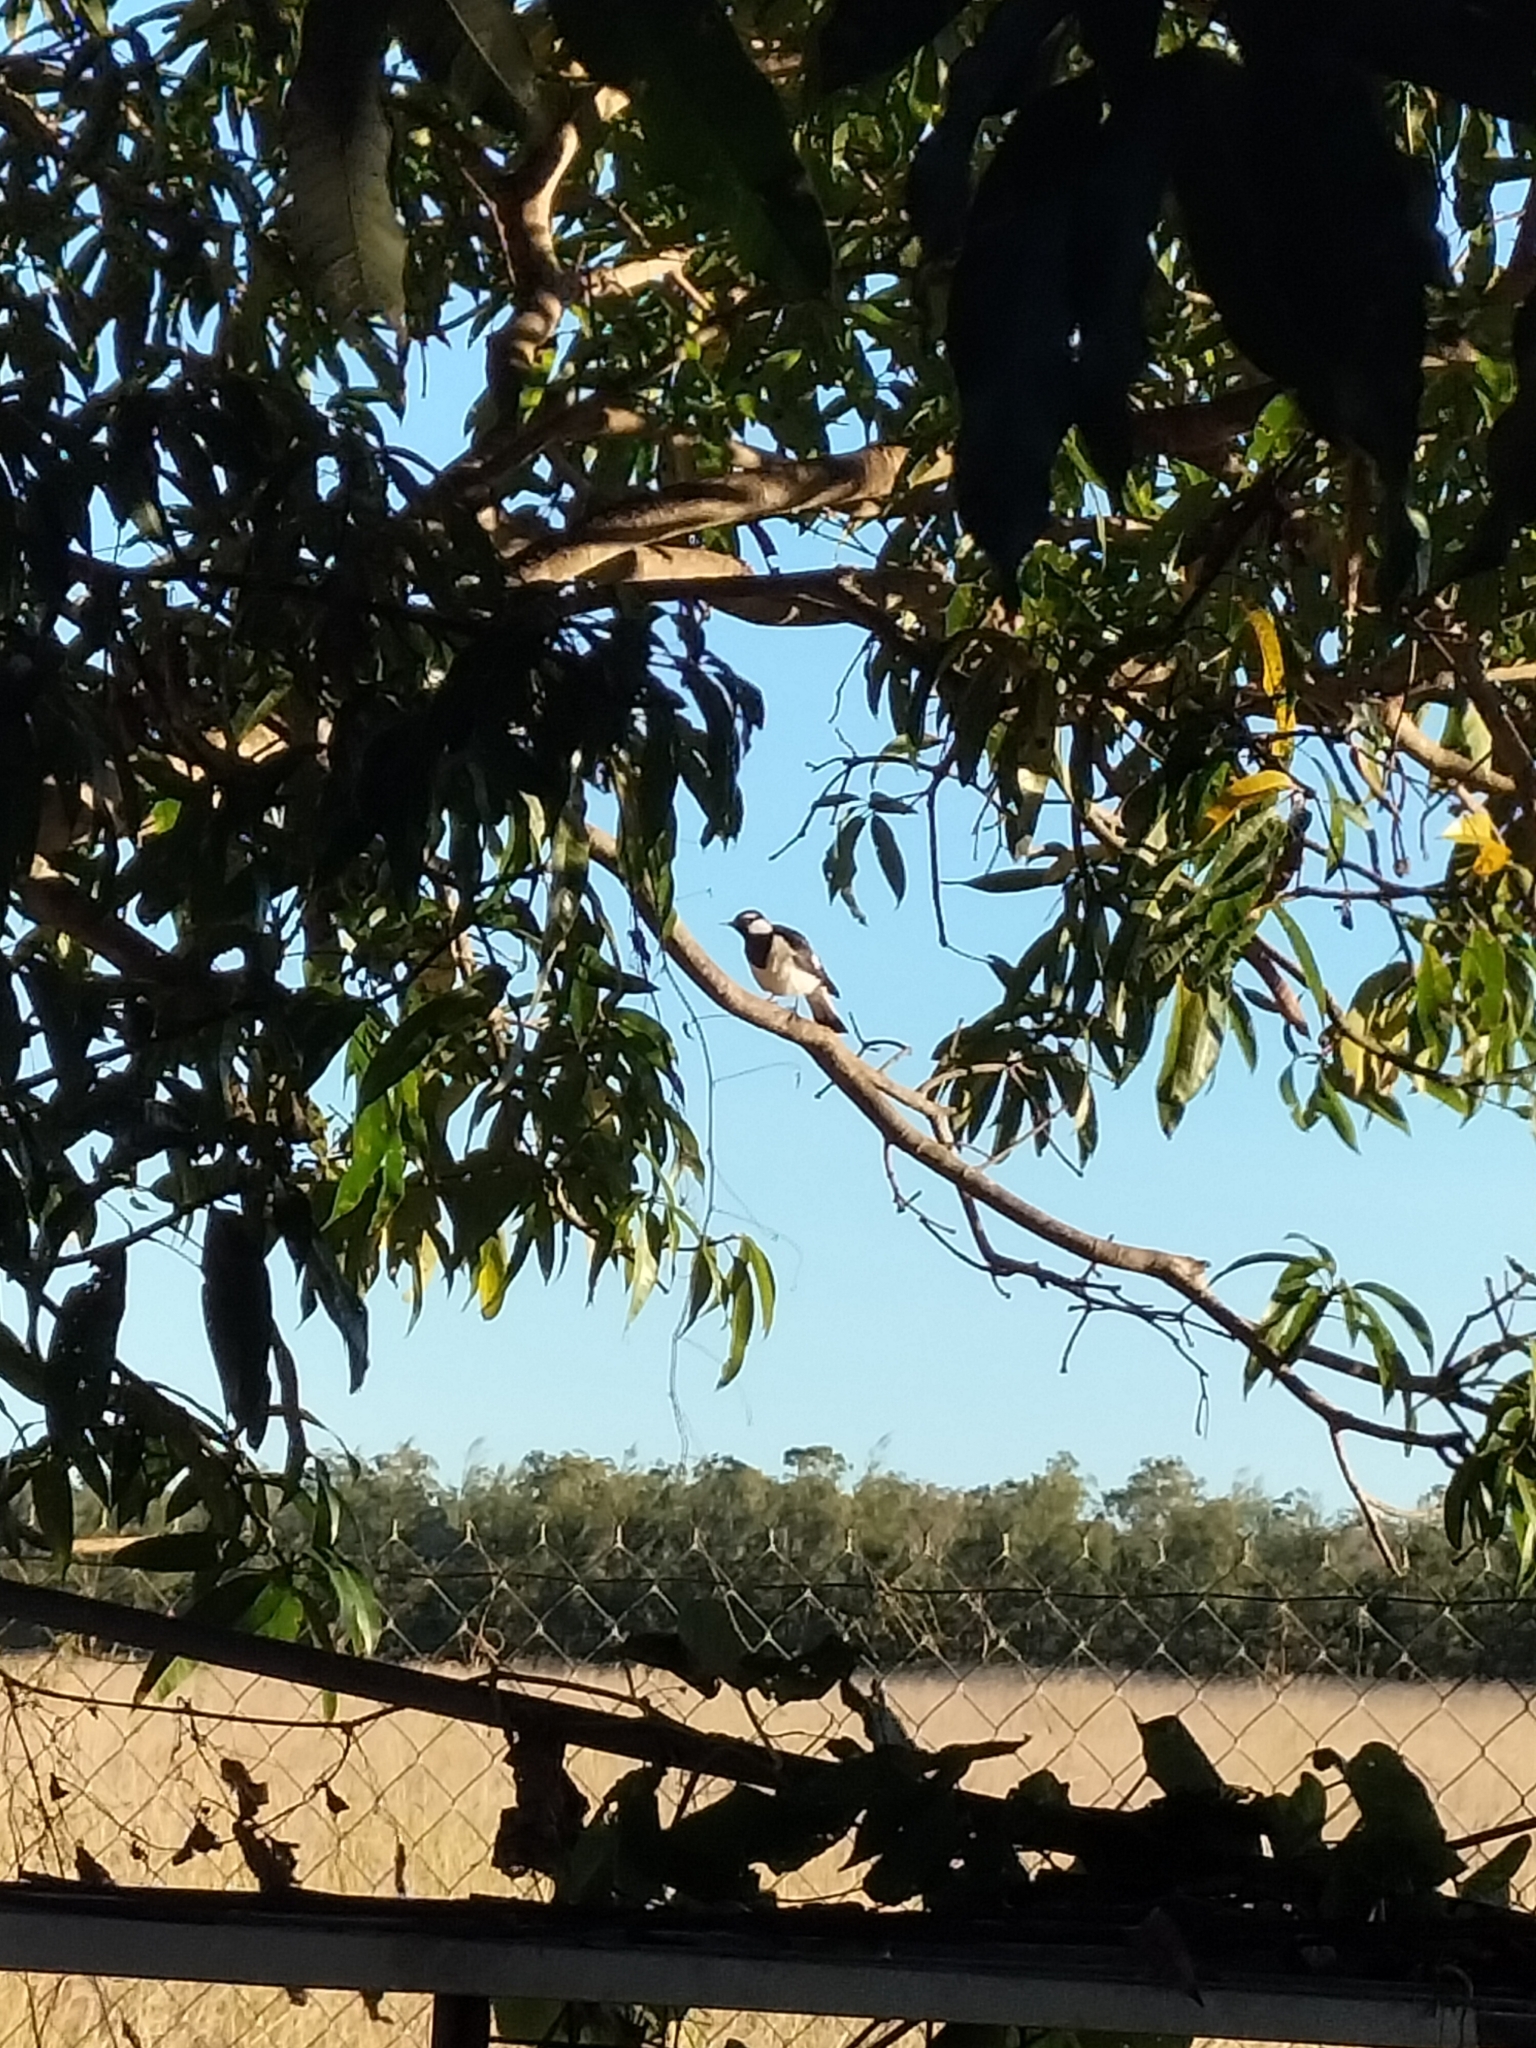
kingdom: Animalia
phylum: Chordata
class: Aves
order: Passeriformes
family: Monarchidae
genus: Grallina
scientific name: Grallina cyanoleuca
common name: Magpie-lark
